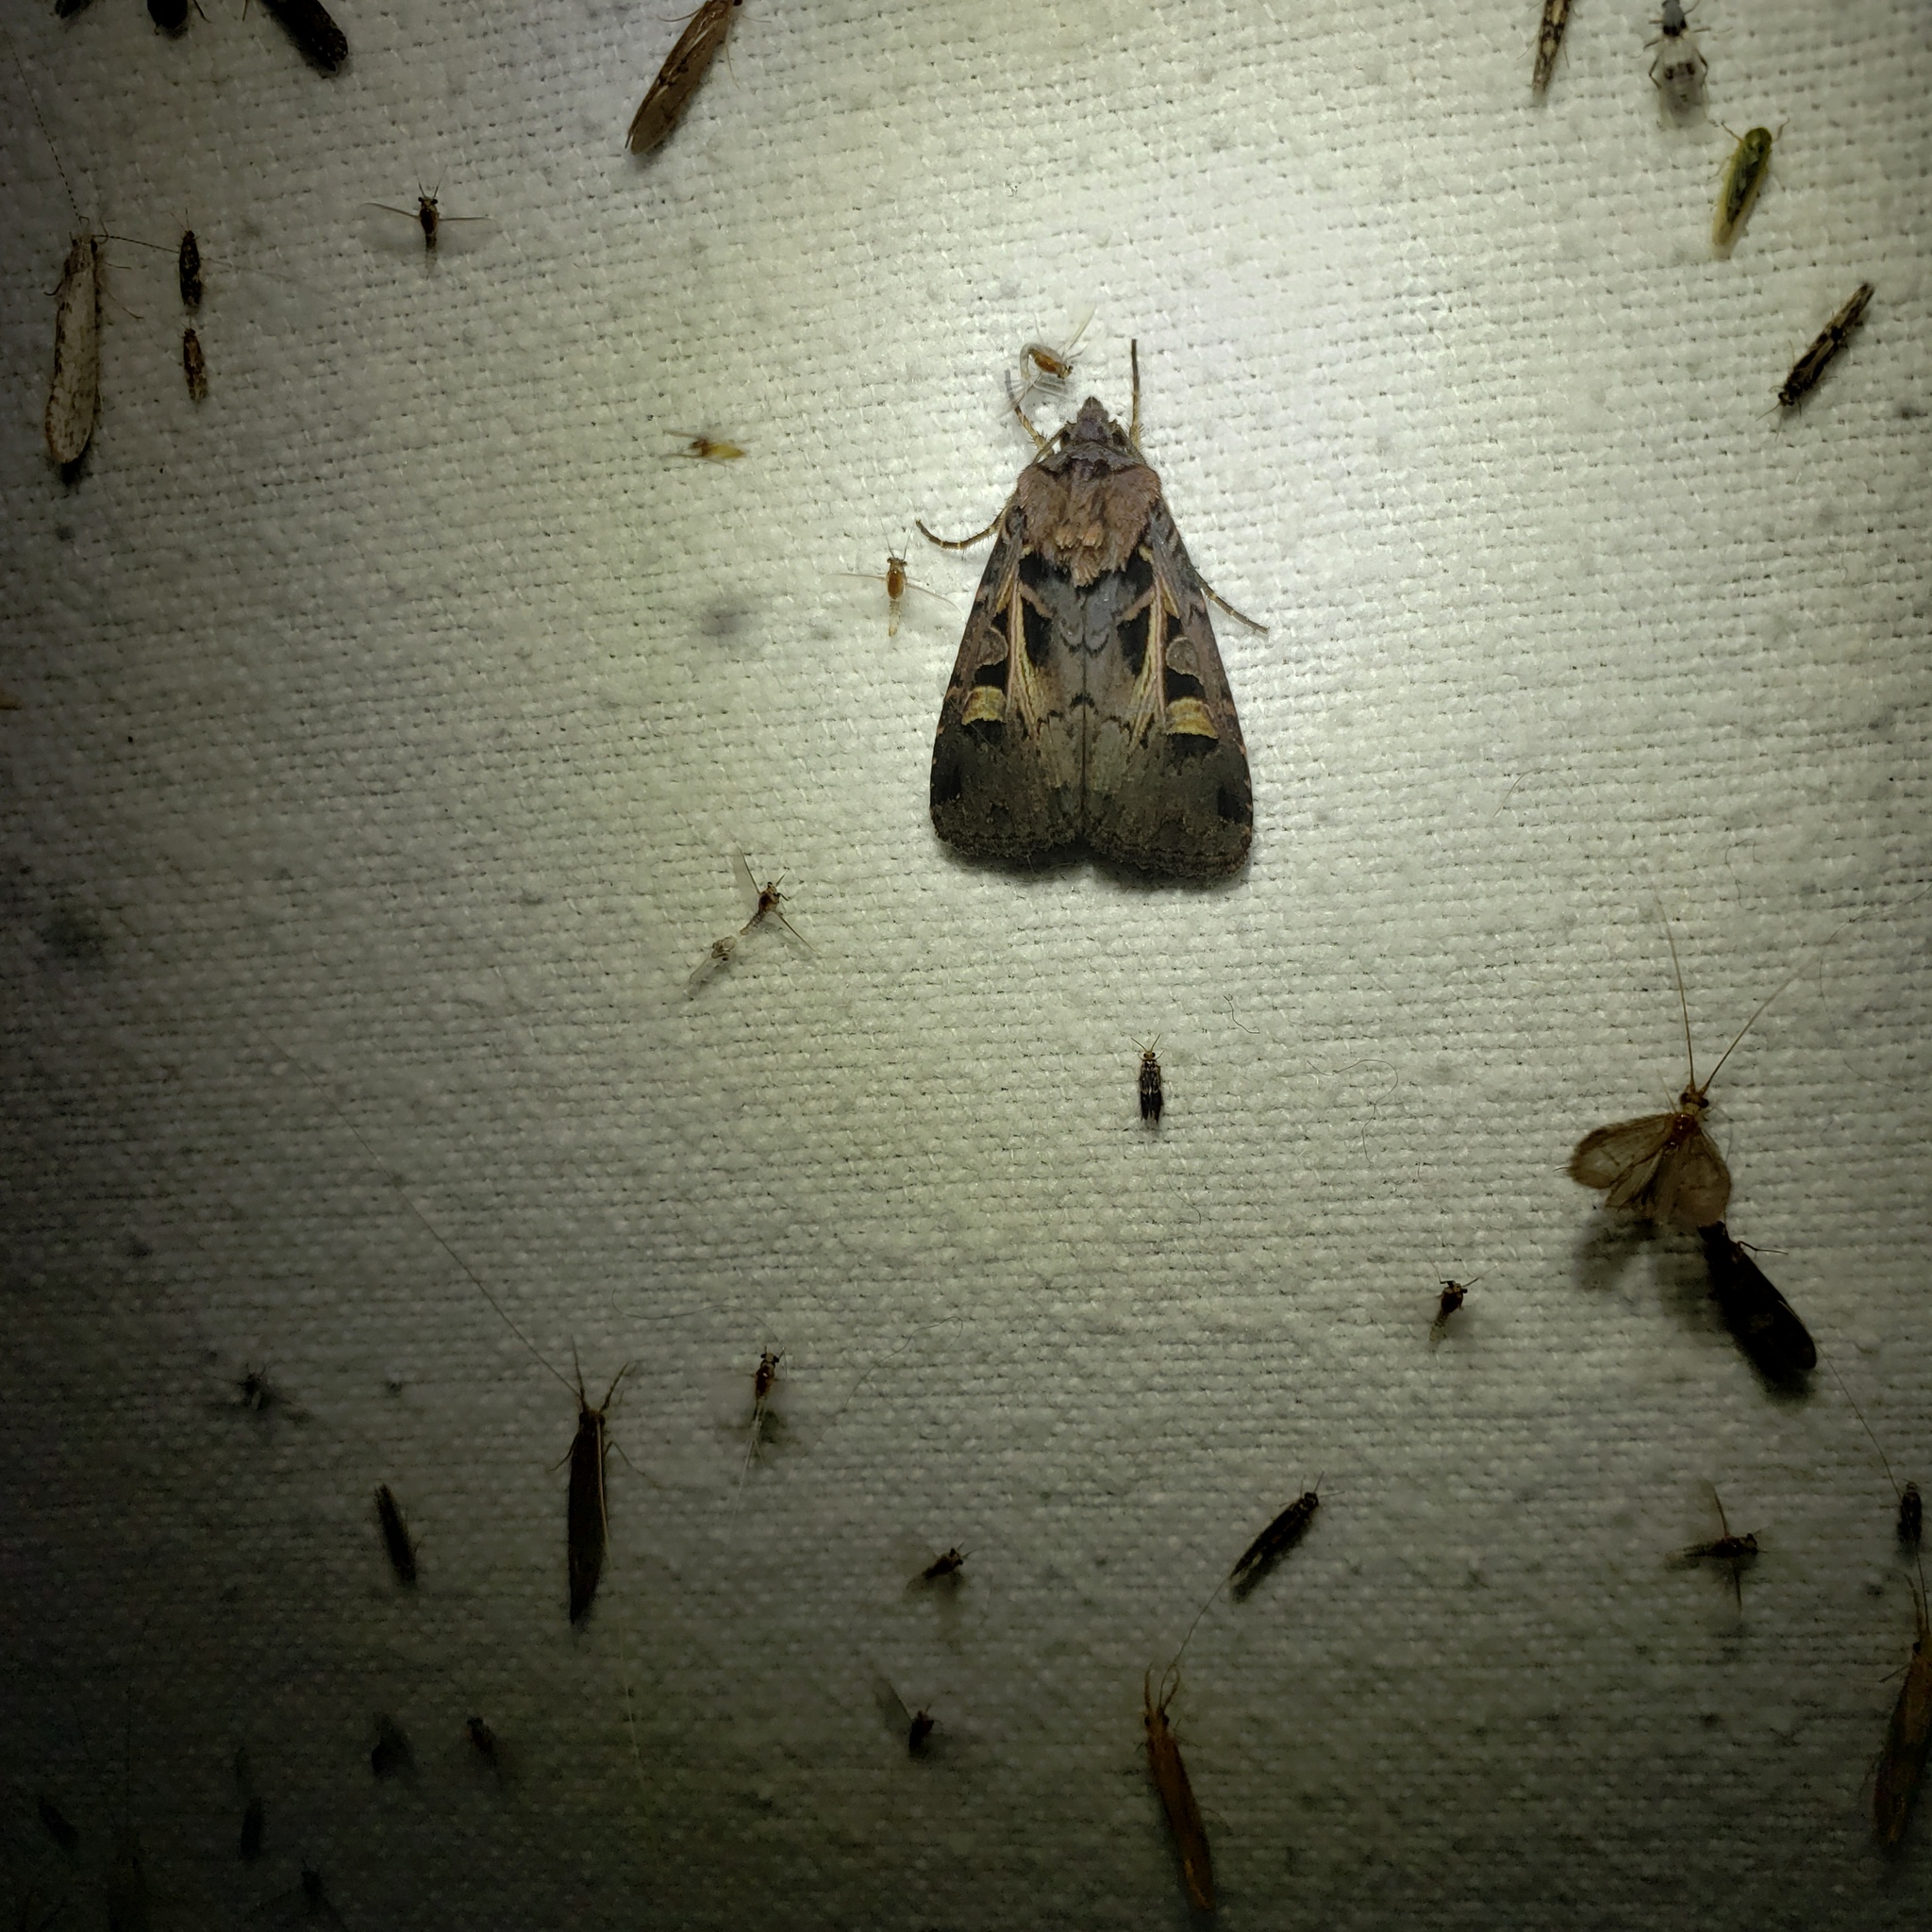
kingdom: Animalia
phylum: Arthropoda
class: Insecta
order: Lepidoptera
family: Noctuidae
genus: Feltia
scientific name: Feltia herilis
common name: Master's dart
